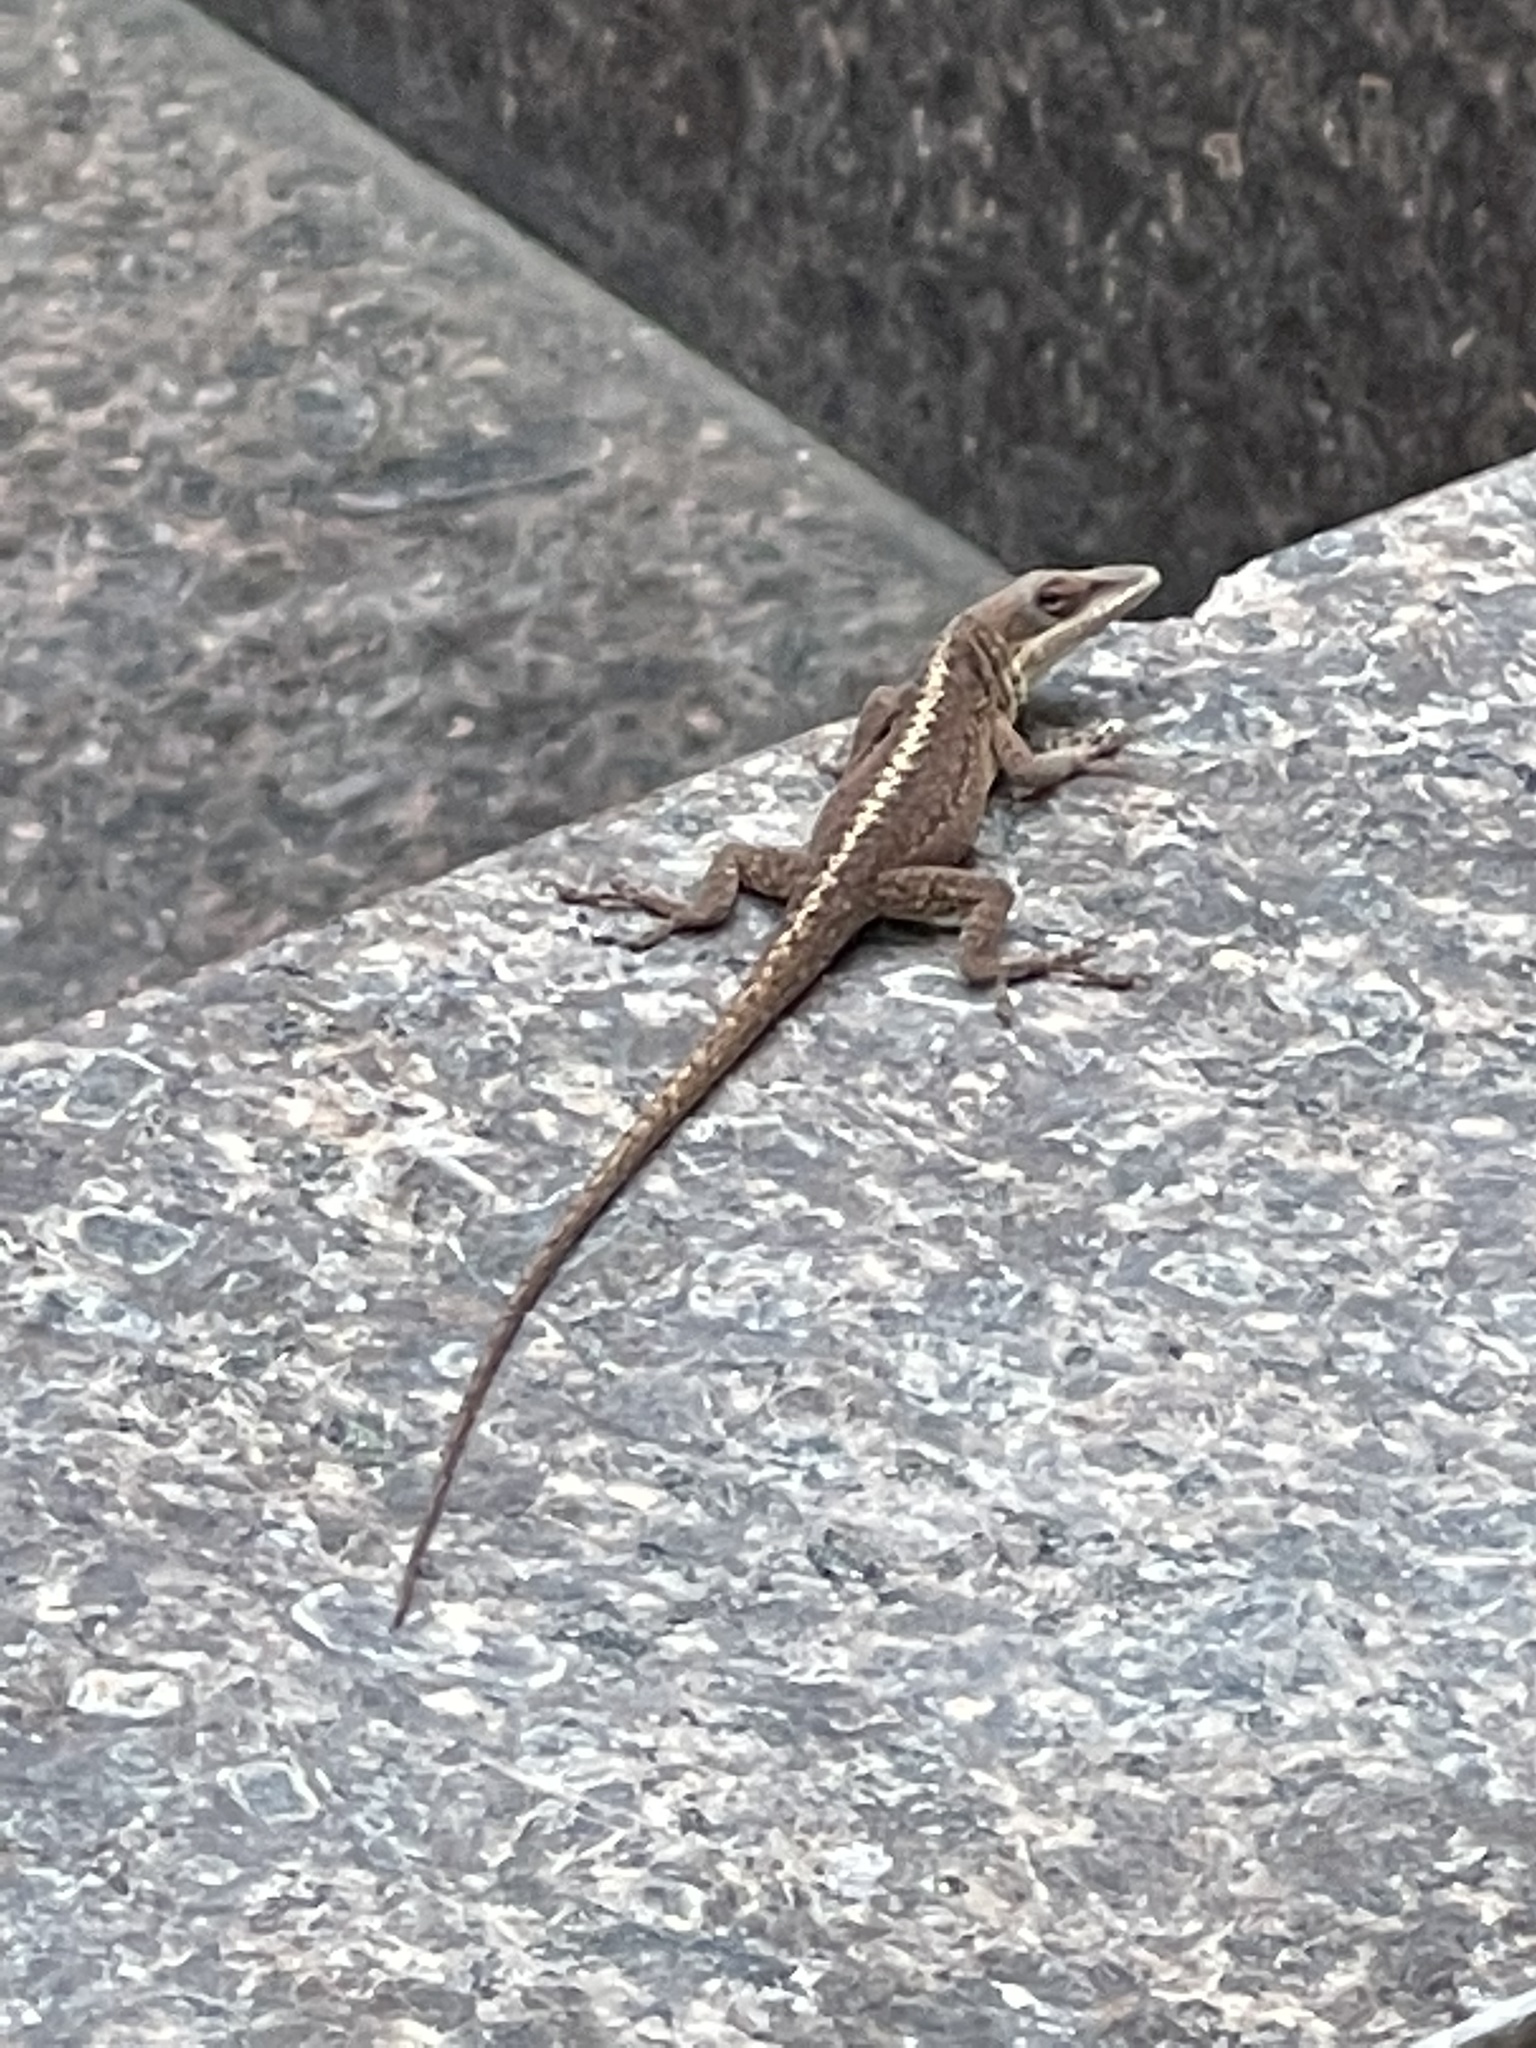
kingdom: Animalia
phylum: Chordata
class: Squamata
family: Dactyloidae
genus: Anolis
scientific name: Anolis carolinensis
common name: Green anole
